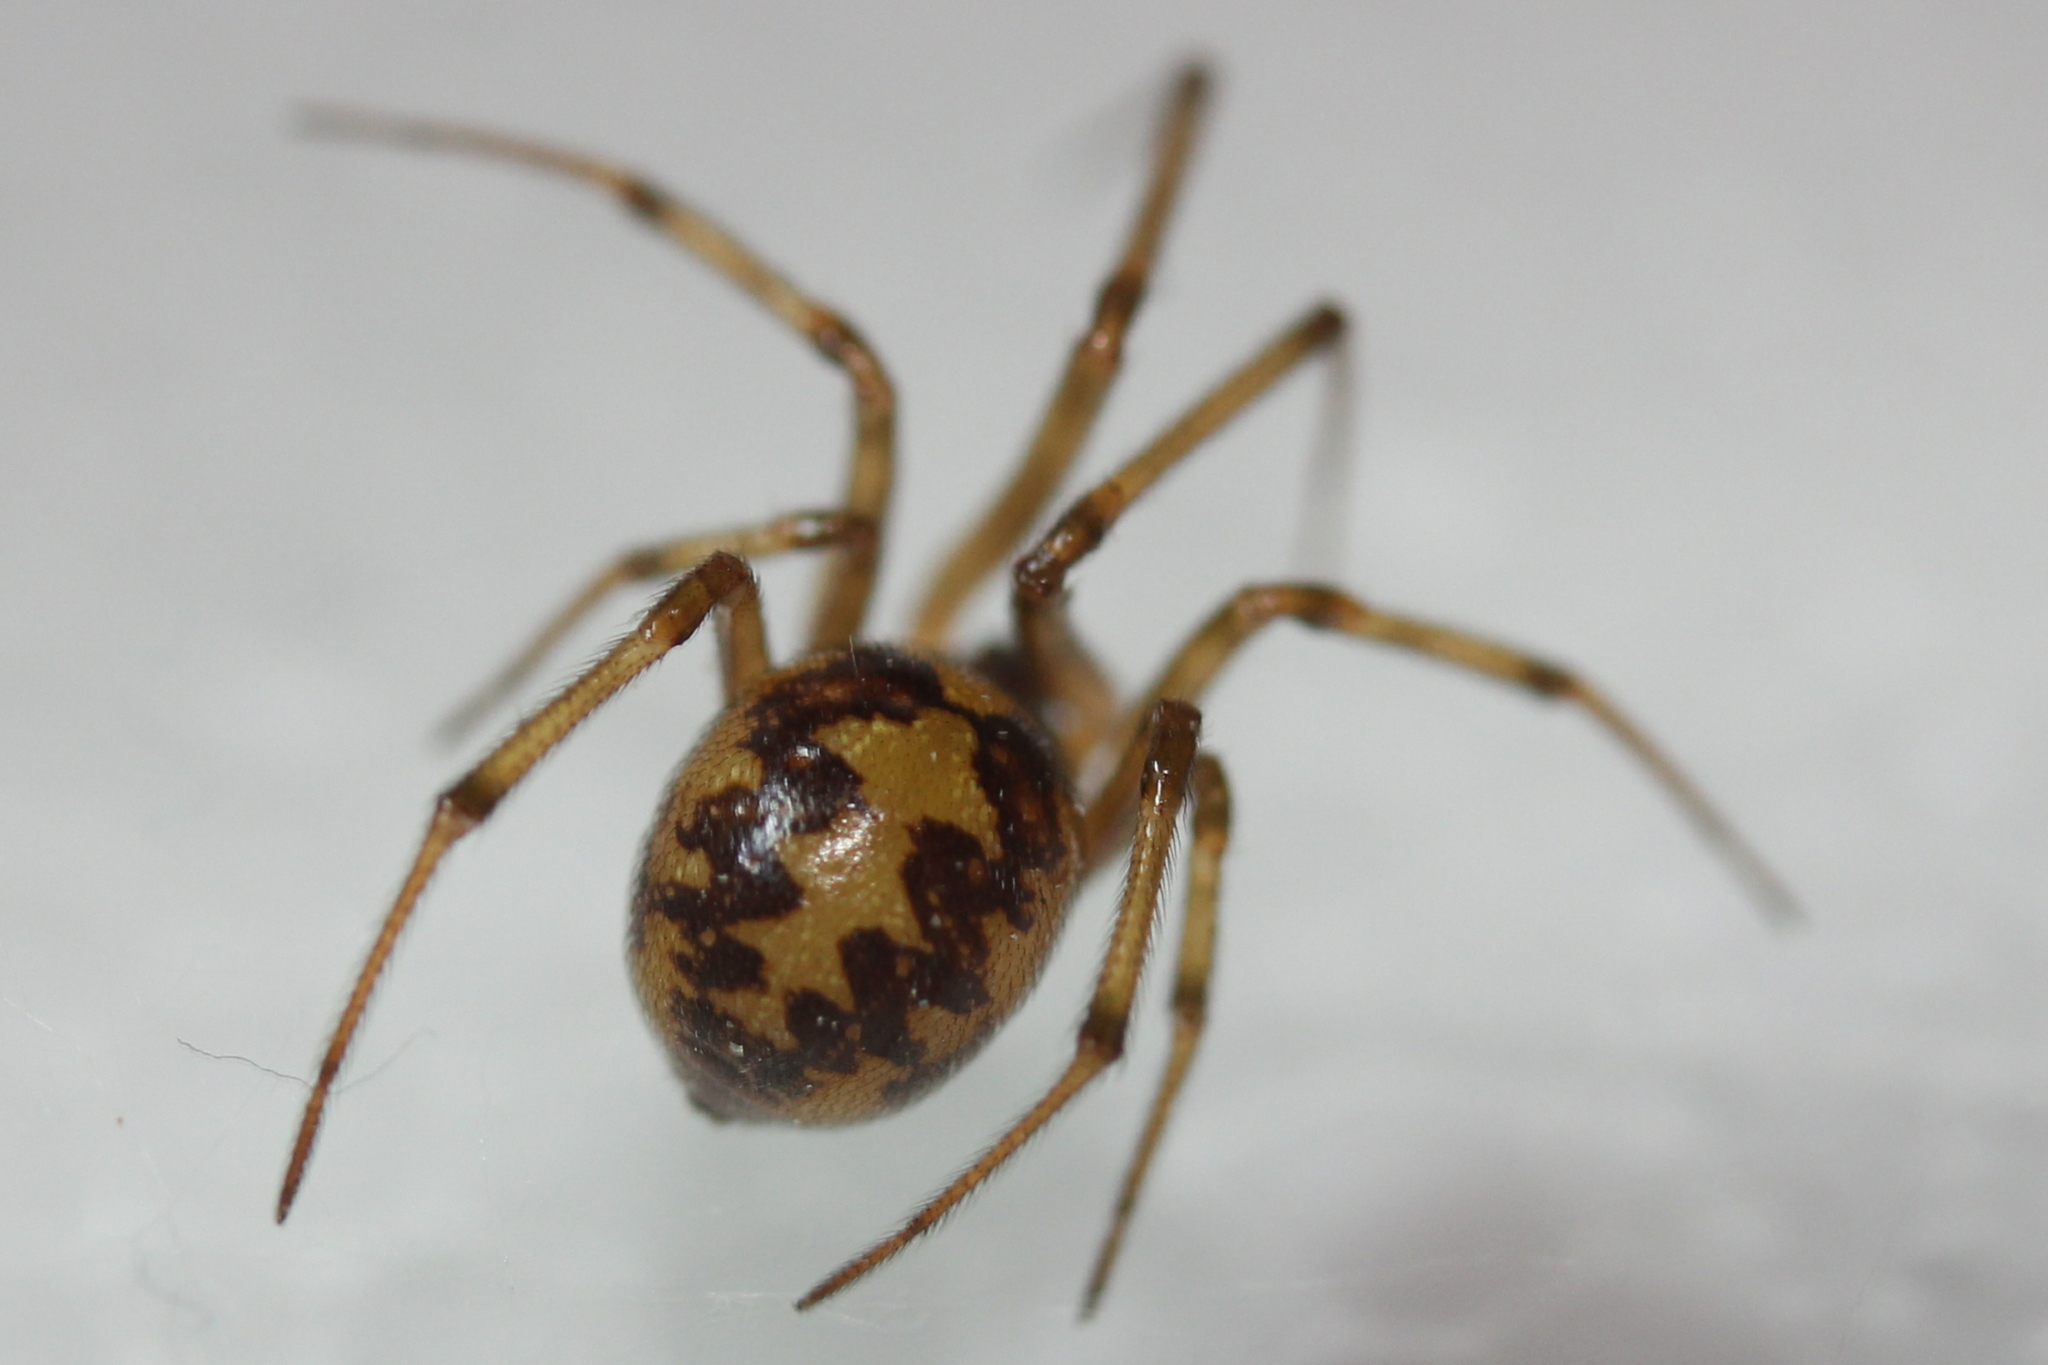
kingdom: Animalia
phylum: Arthropoda
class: Arachnida
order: Araneae
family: Theridiidae
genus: Steatoda
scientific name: Steatoda triangulosa
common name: Triangulate bud spider
